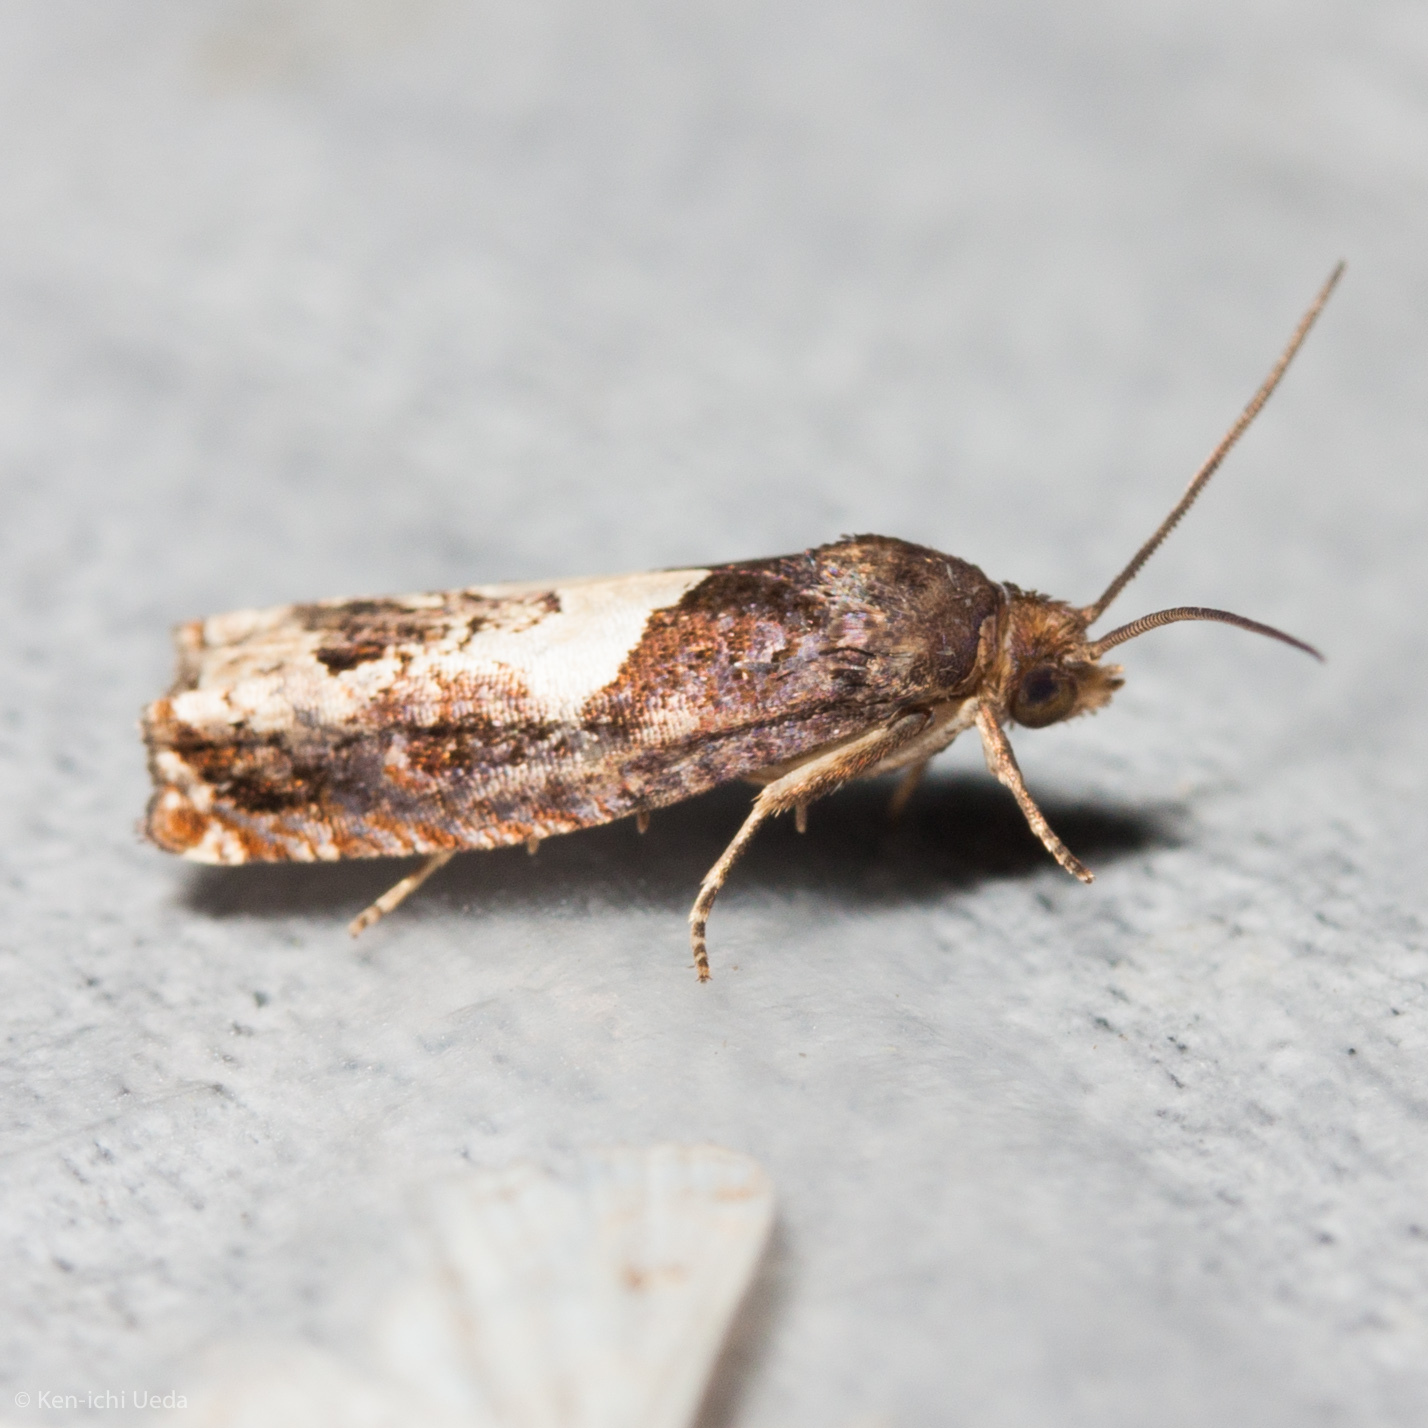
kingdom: Animalia
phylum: Arthropoda
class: Insecta
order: Lepidoptera
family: Tortricidae
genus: Epiblema
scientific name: Epiblema otiosana
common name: Bidens borer moth
